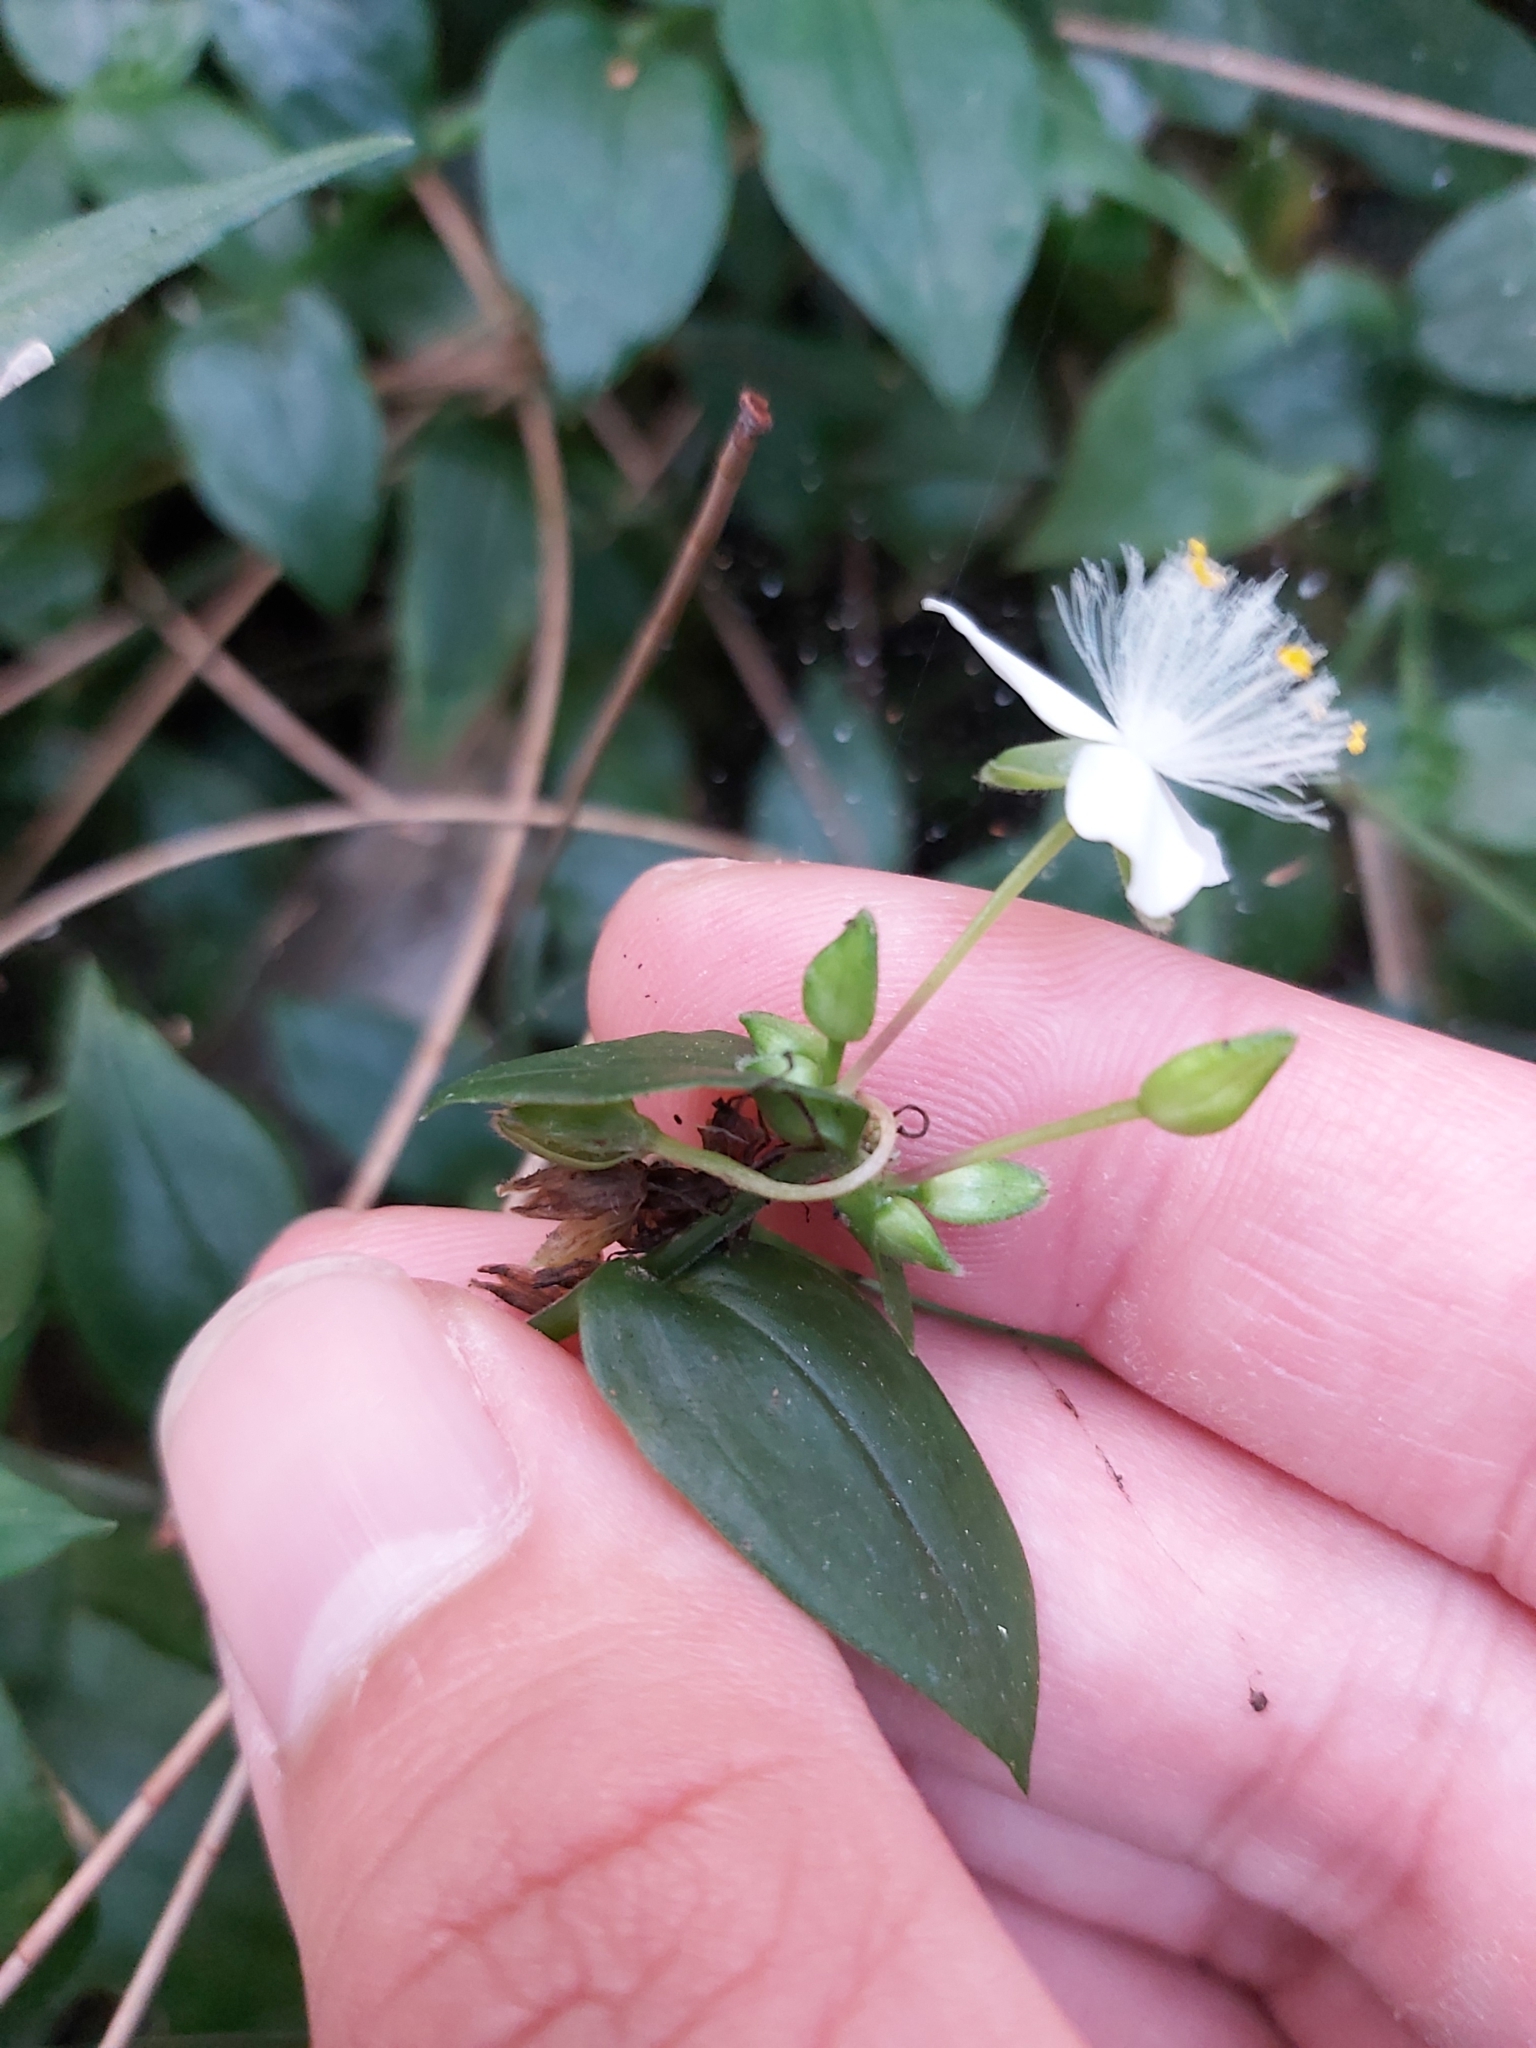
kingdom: Plantae
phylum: Tracheophyta
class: Liliopsida
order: Commelinales
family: Commelinaceae
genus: Tradescantia
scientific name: Tradescantia fluminensis
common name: Wandering-jew
